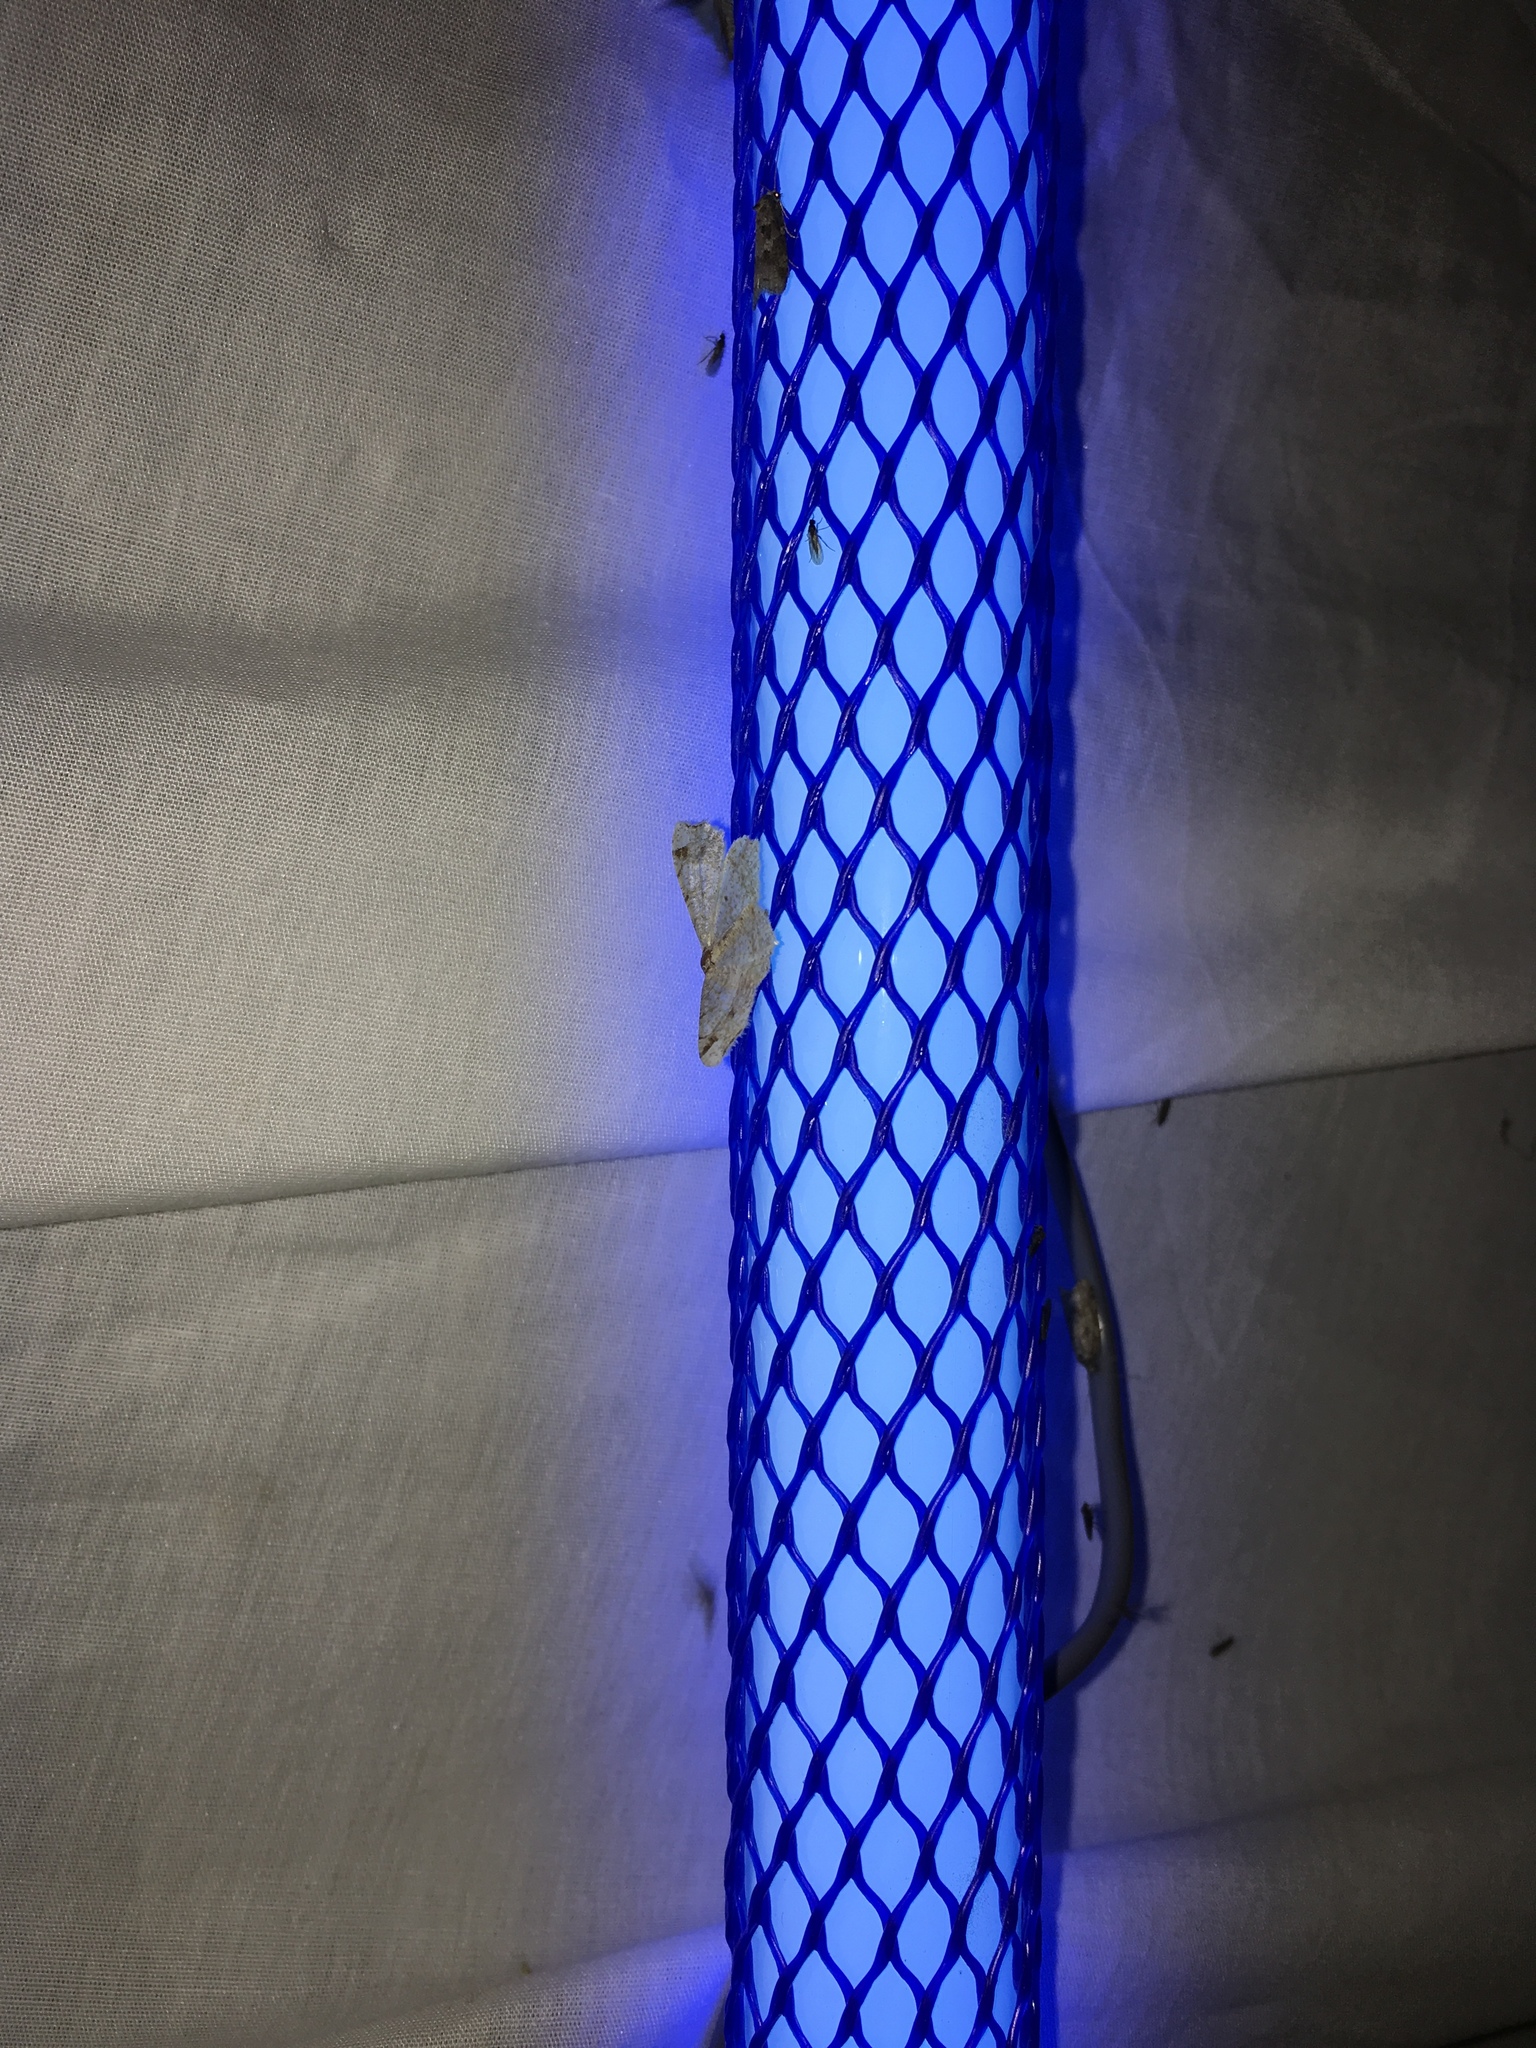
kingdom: Animalia
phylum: Arthropoda
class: Insecta
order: Lepidoptera
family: Geometridae
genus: Macaria
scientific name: Macaria bisignata
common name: Red-headed inchworm
